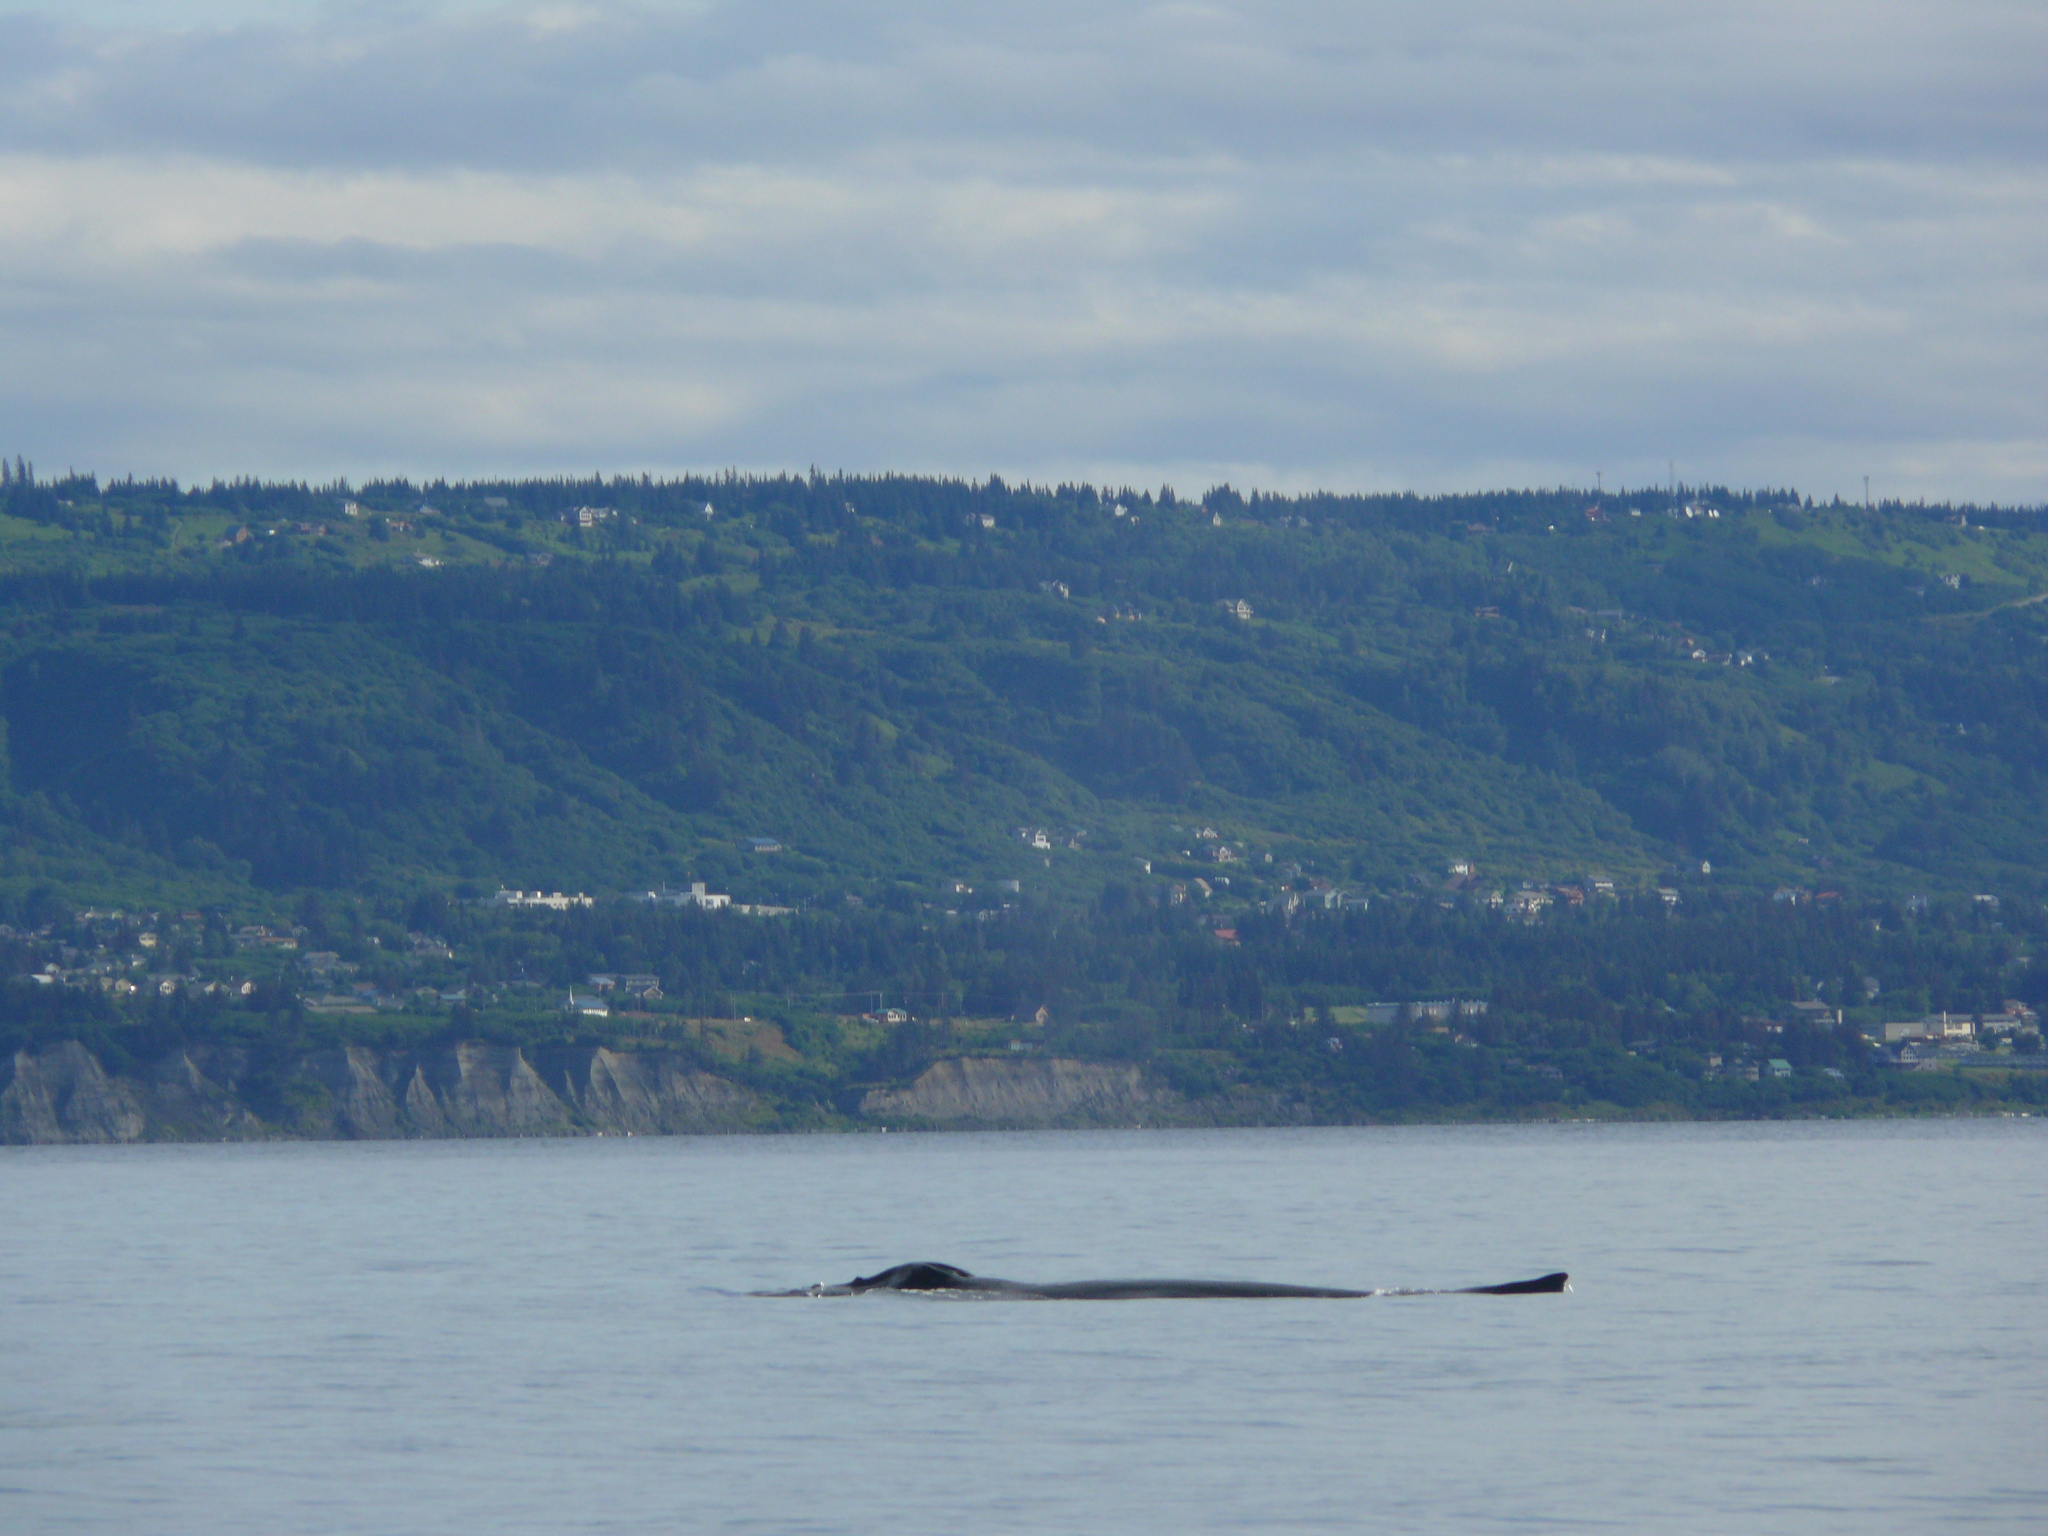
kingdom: Animalia
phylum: Chordata
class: Mammalia
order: Cetacea
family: Balaenopteridae
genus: Megaptera
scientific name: Megaptera novaeangliae
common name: Humpback whale
